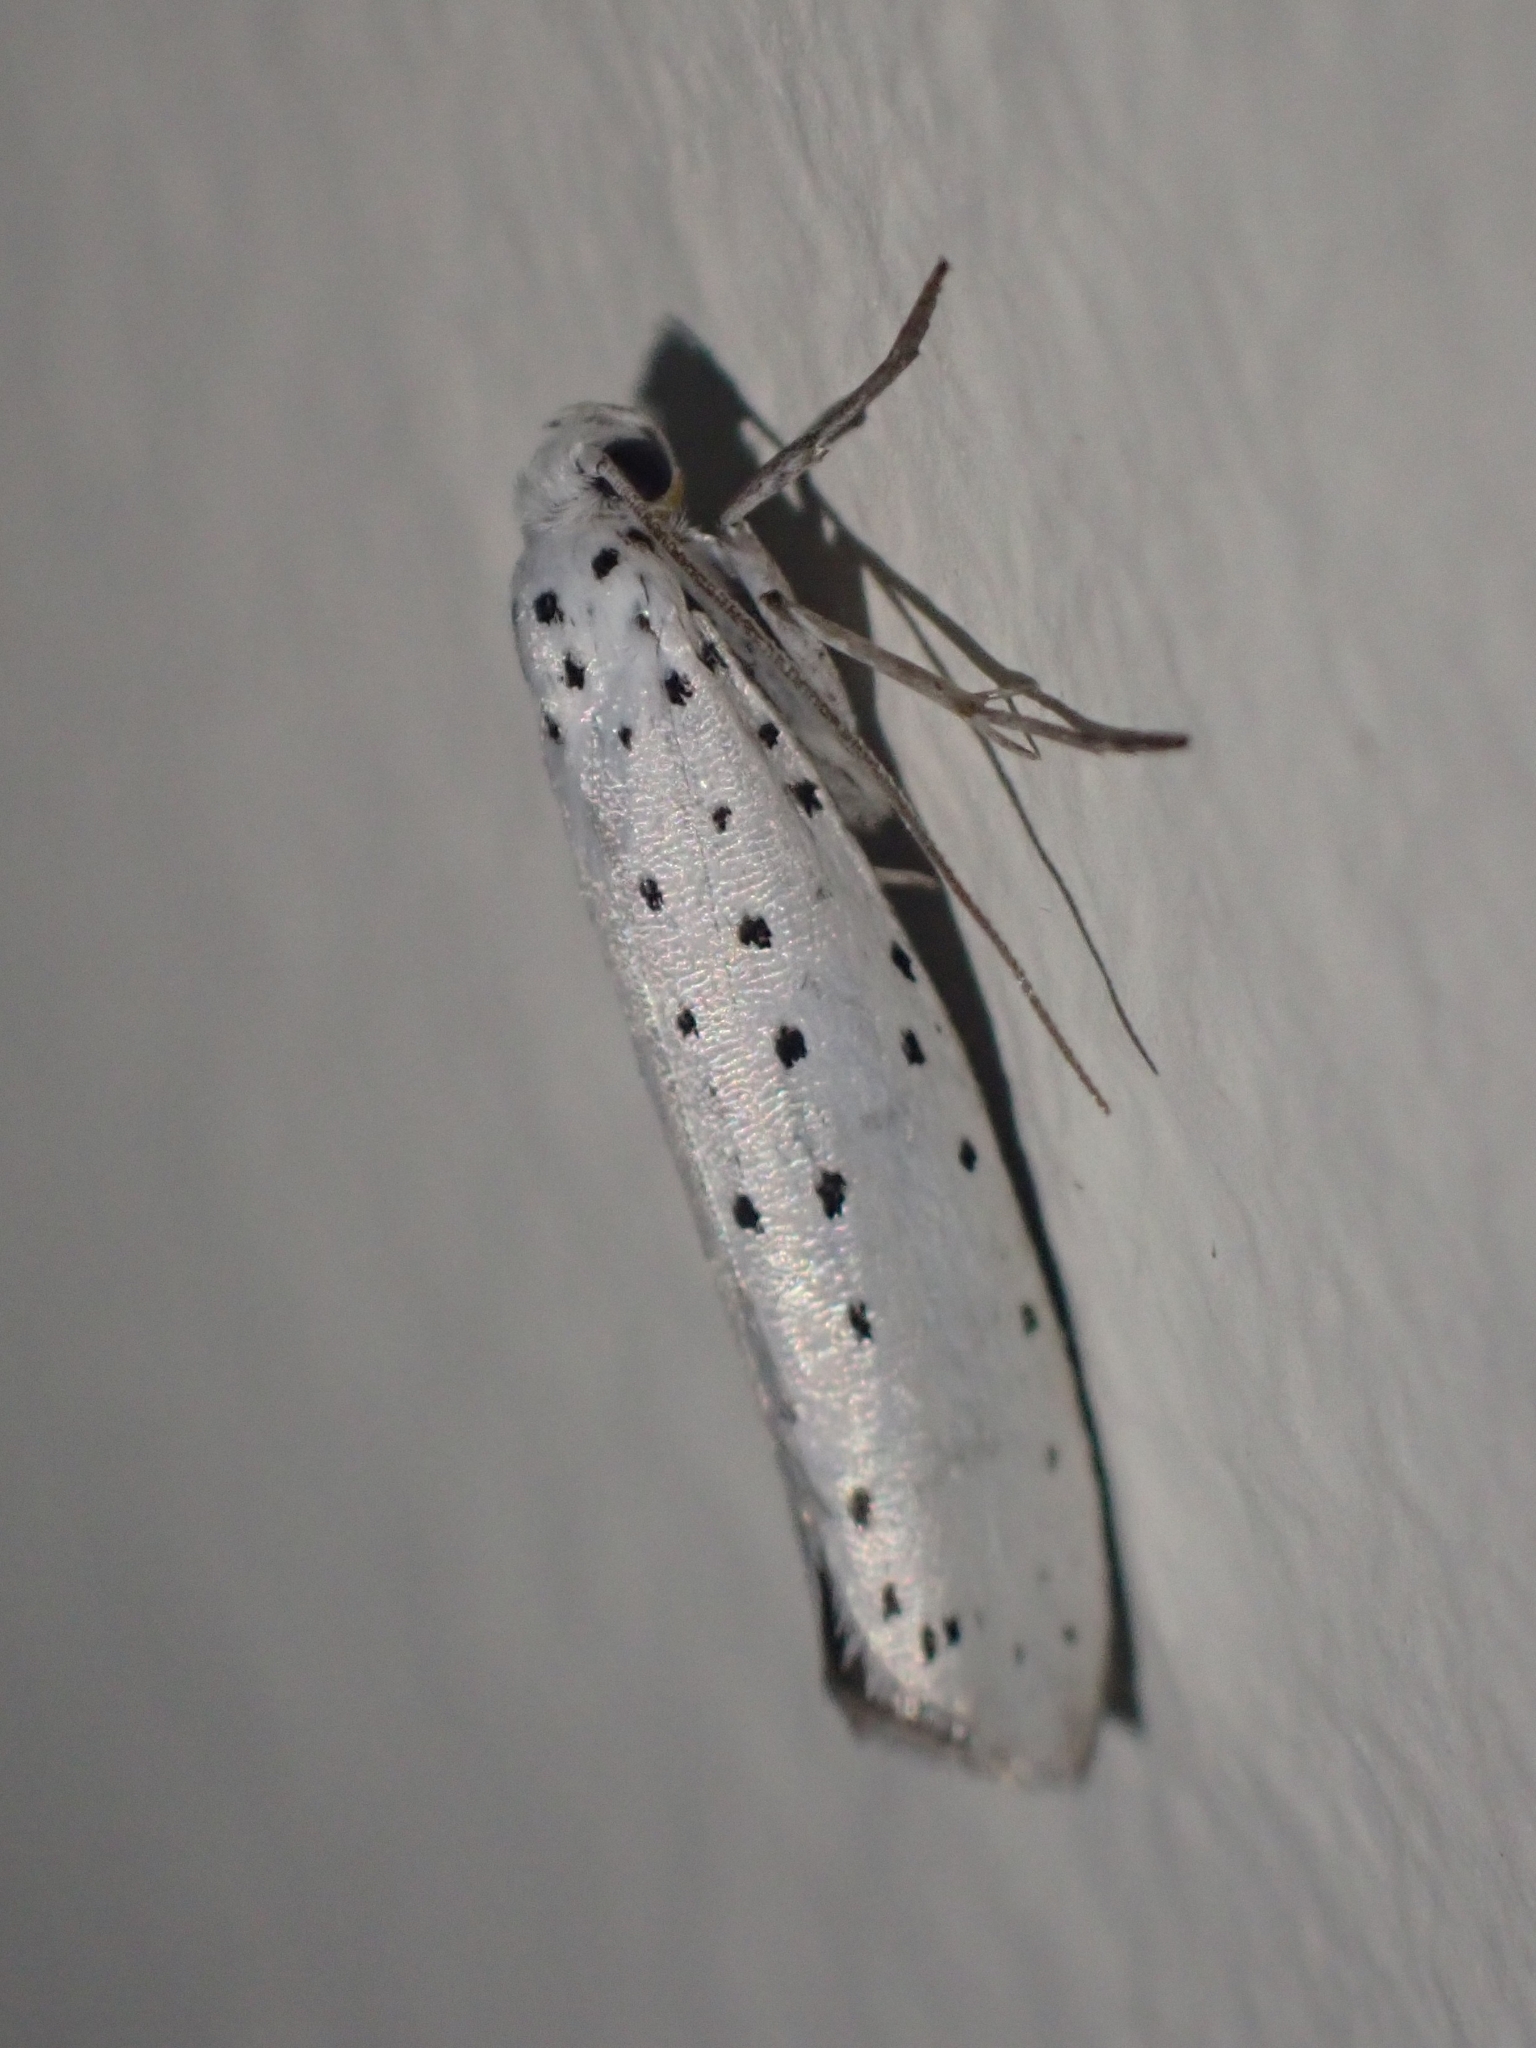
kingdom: Animalia
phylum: Arthropoda
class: Insecta
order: Lepidoptera
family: Yponomeutidae
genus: Yponomeuta
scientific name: Yponomeuta
